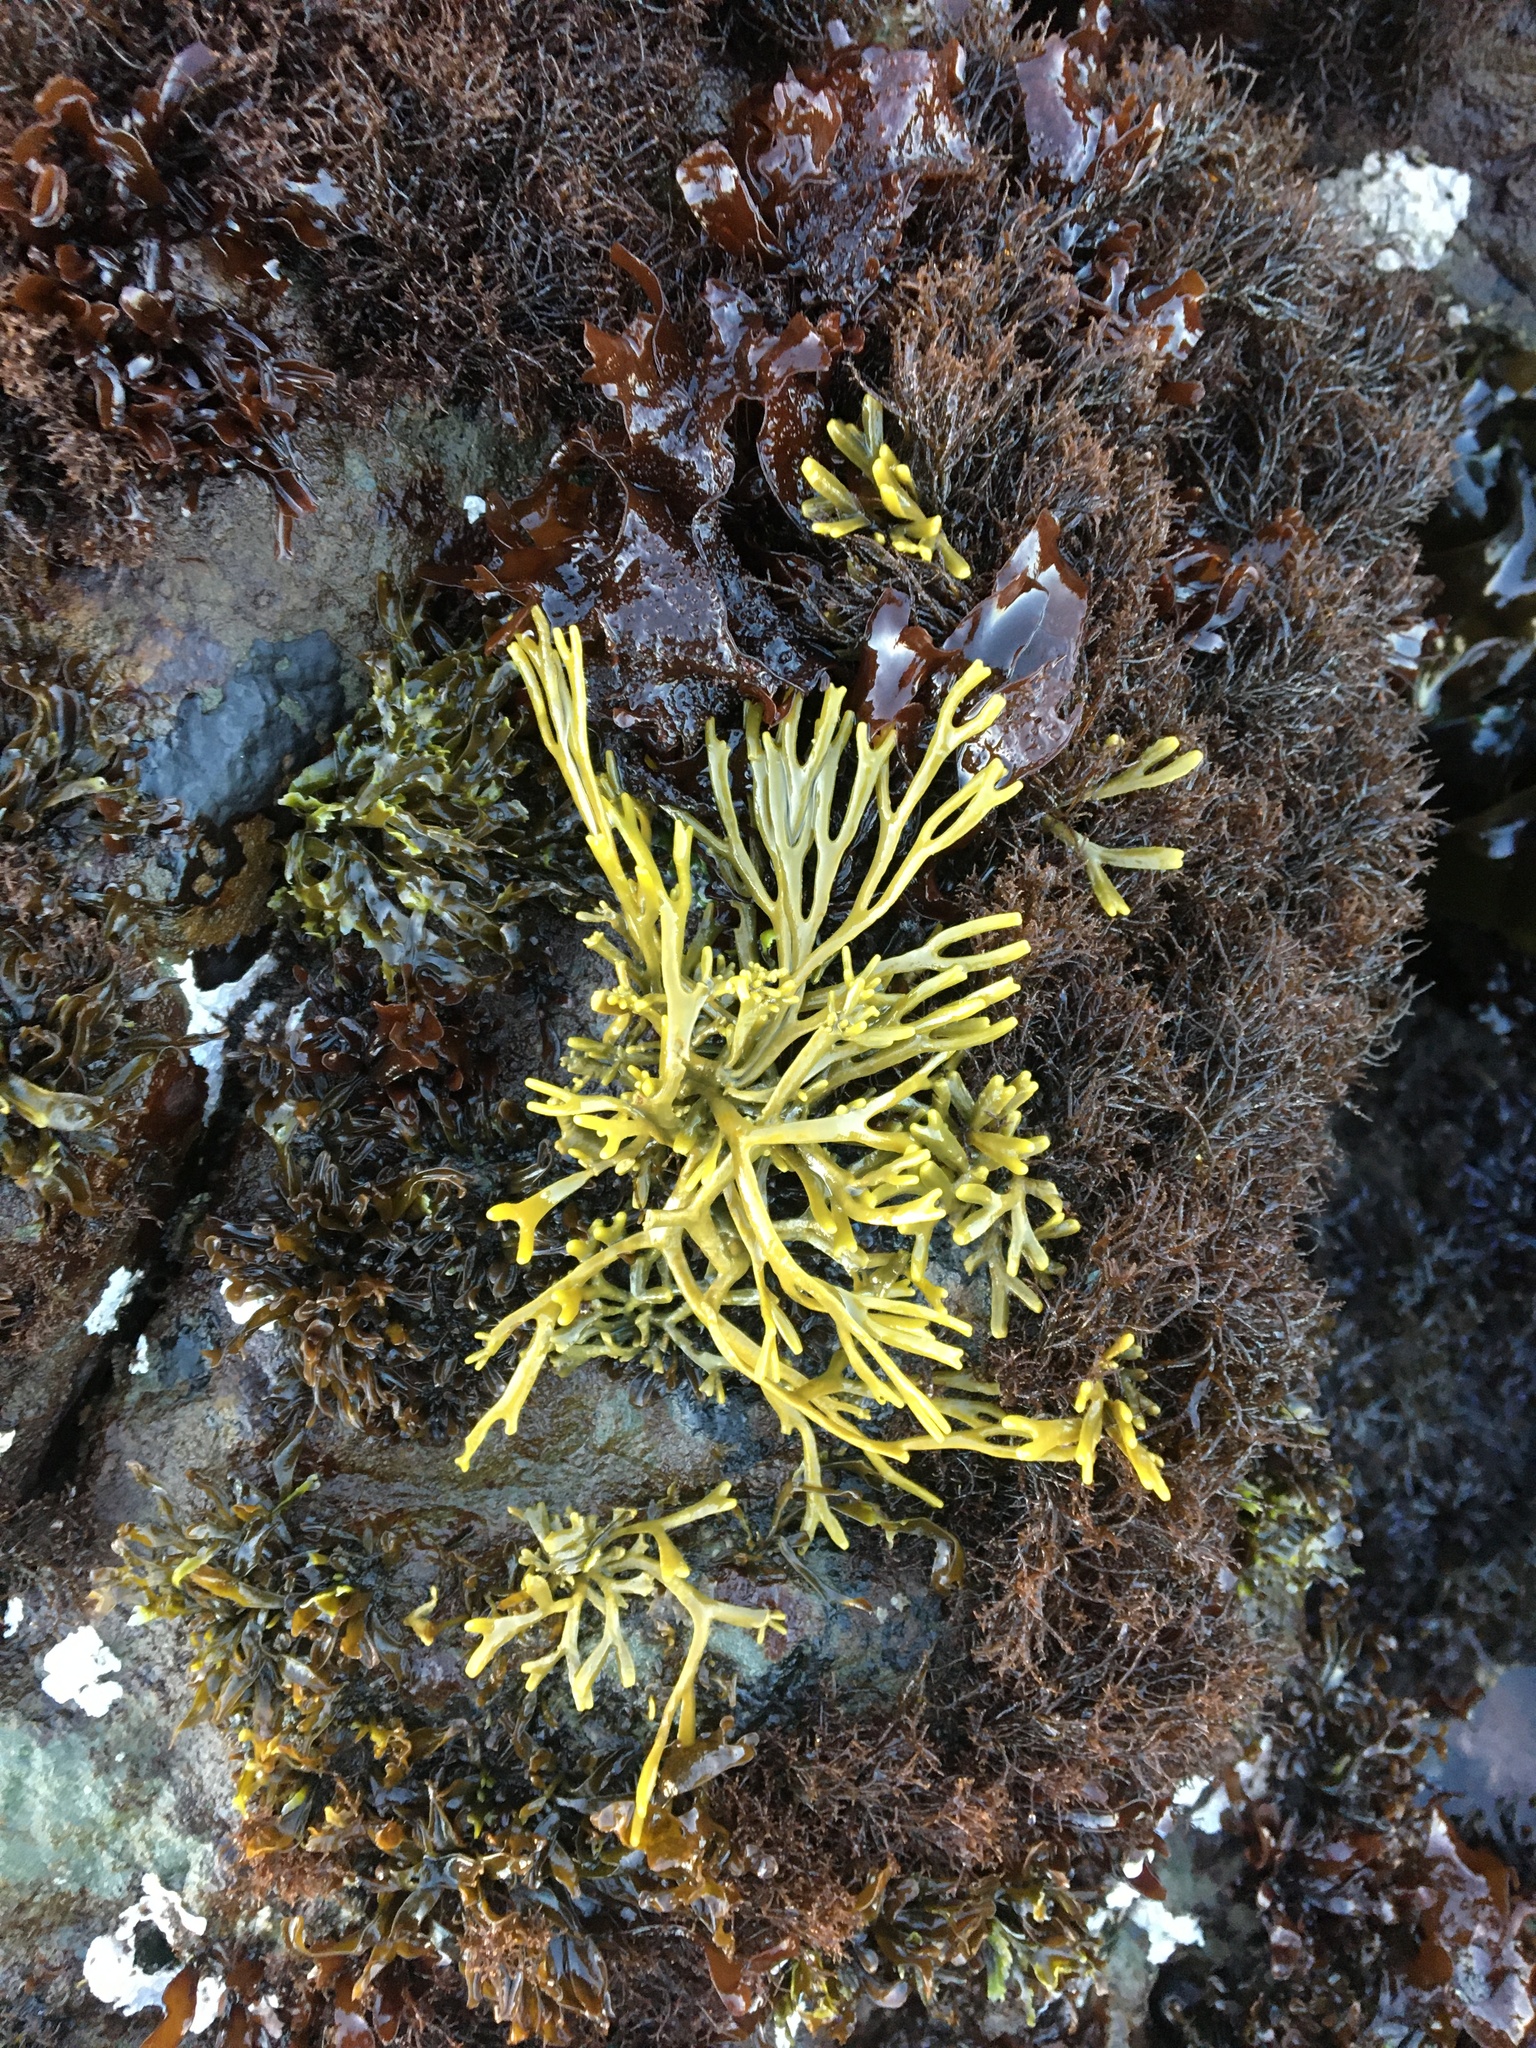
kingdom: Chromista
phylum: Ochrophyta
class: Phaeophyceae
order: Fucales
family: Fucaceae
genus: Silvetia
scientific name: Silvetia
